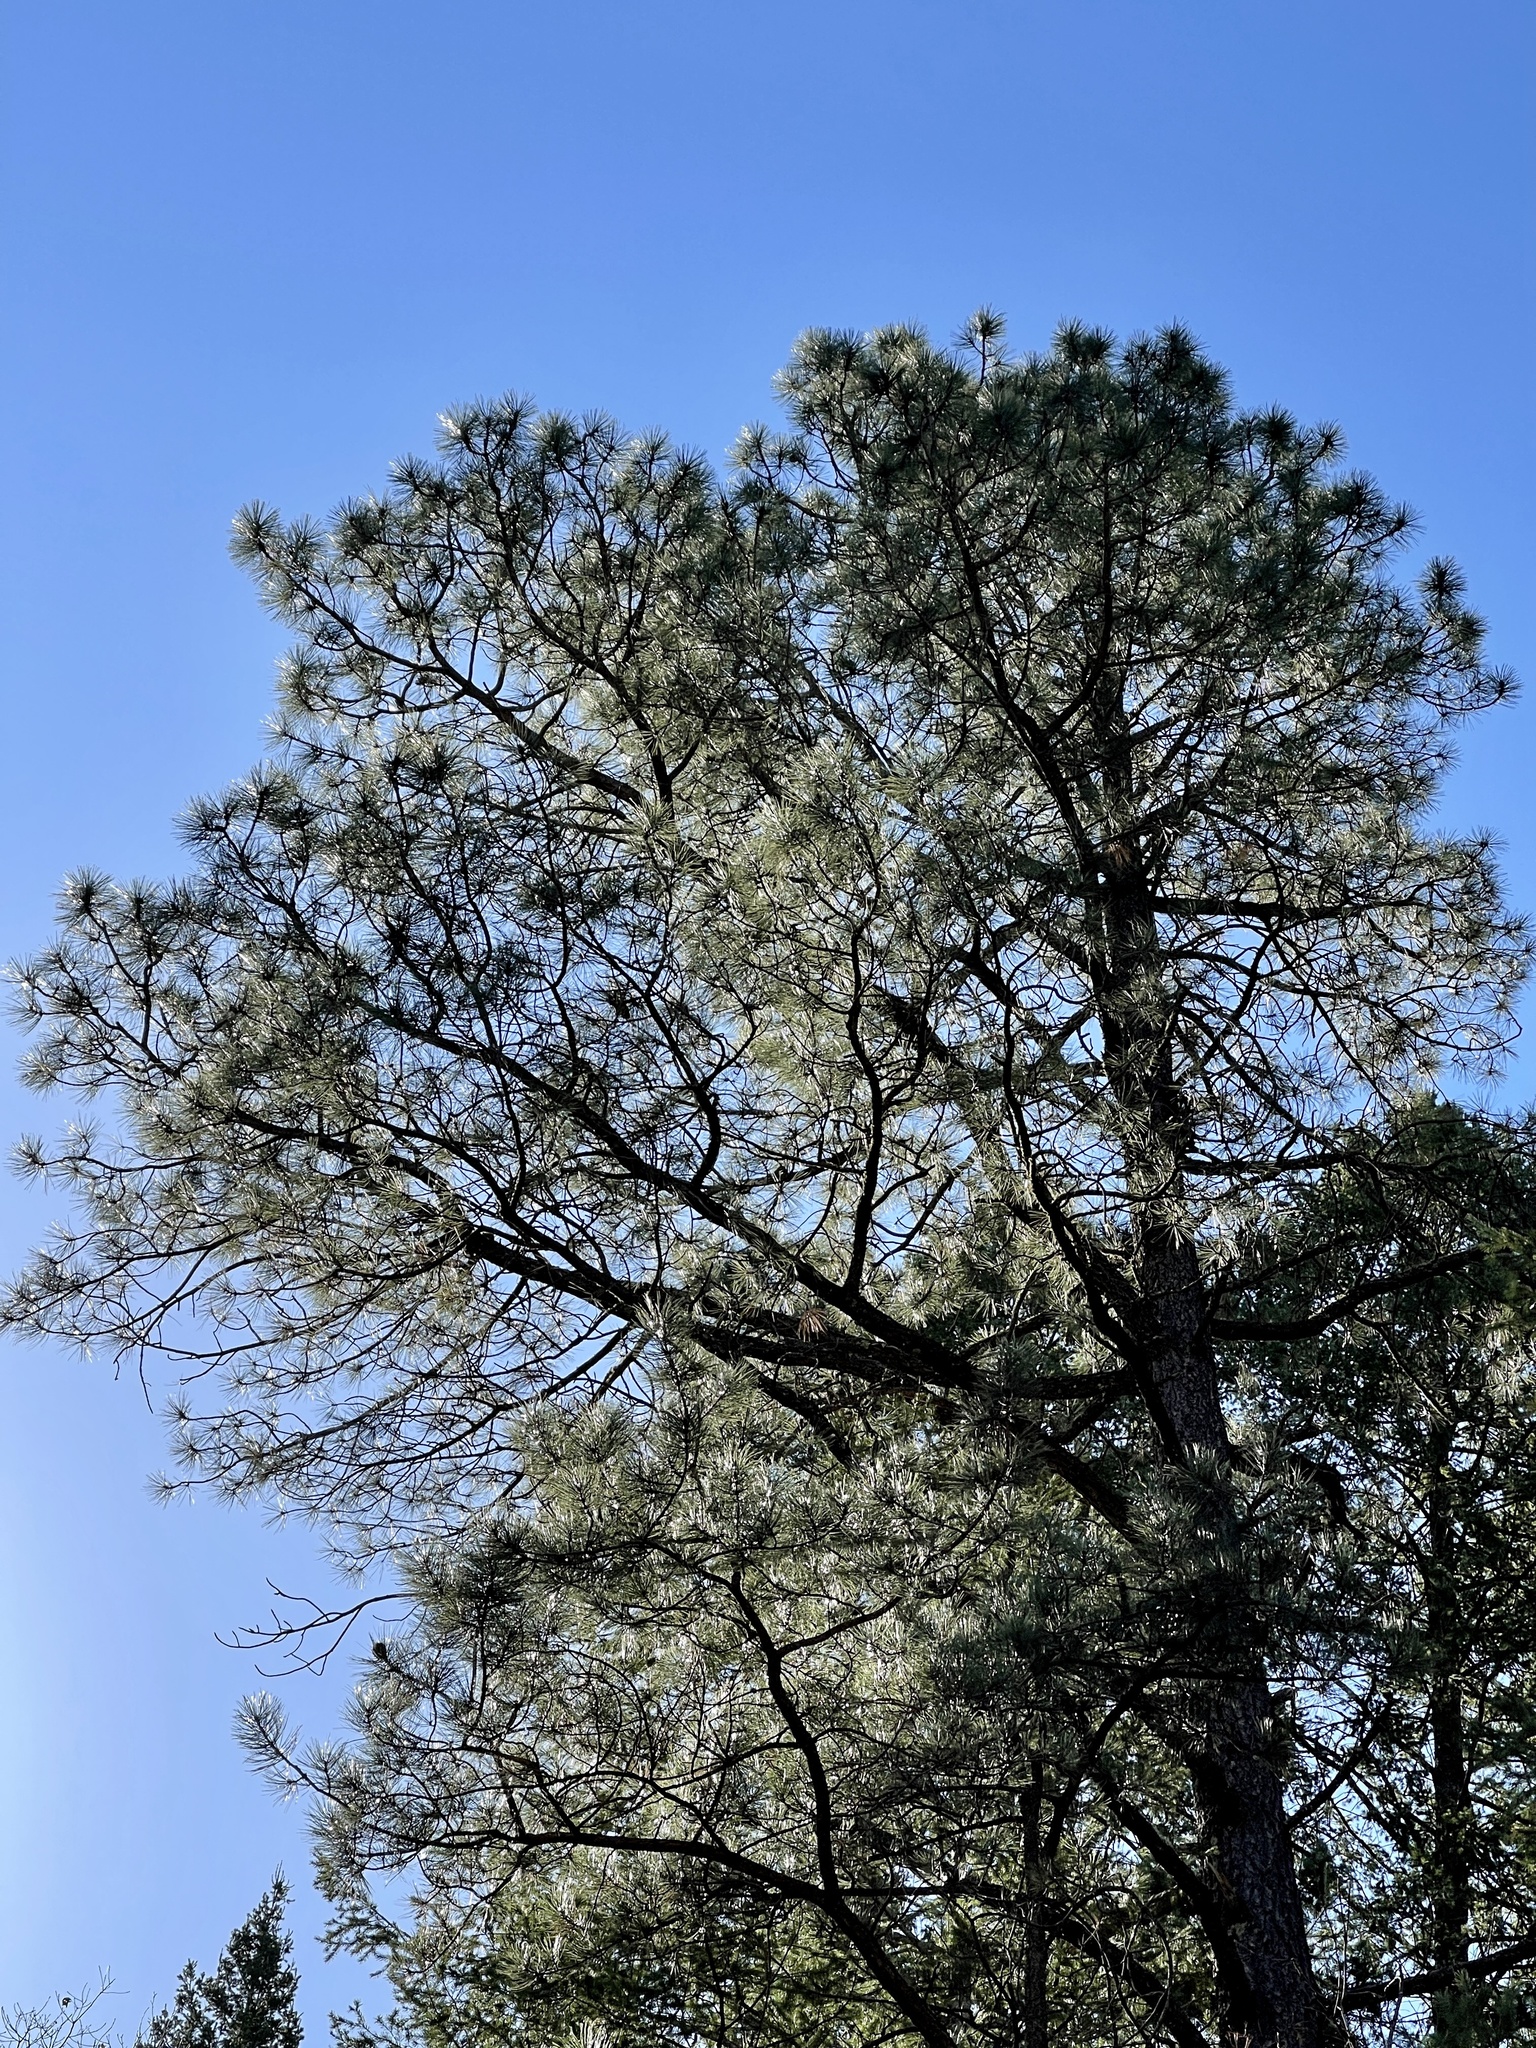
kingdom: Plantae
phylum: Tracheophyta
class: Pinopsida
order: Pinales
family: Pinaceae
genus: Pinus
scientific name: Pinus ponderosa
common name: Western yellow-pine
